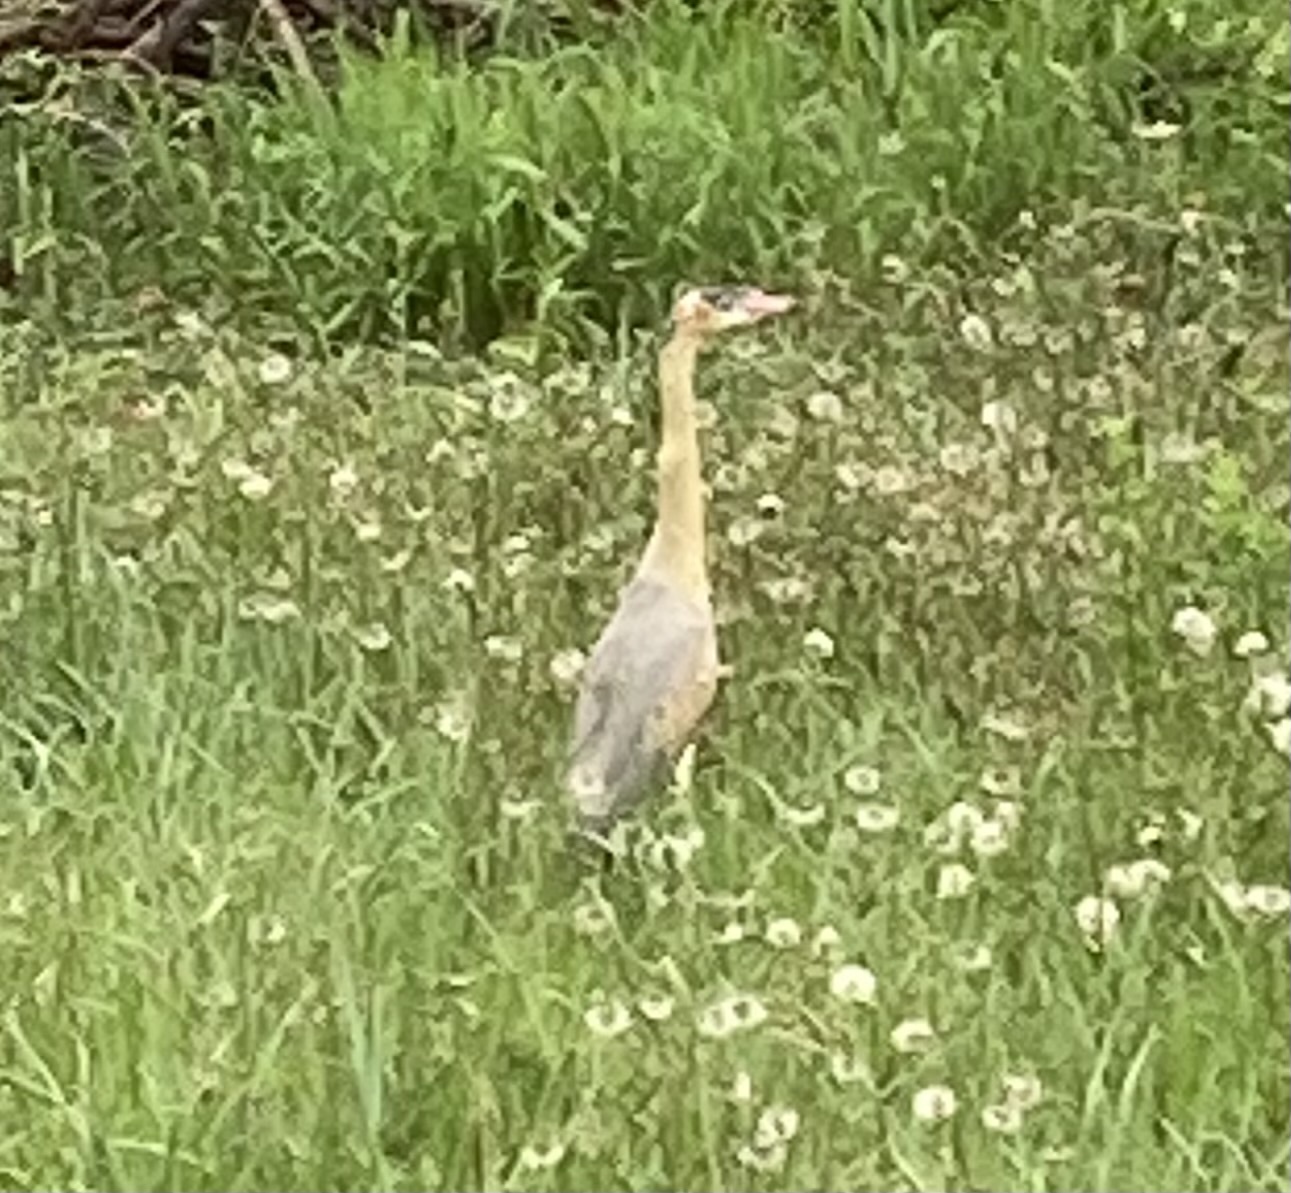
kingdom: Animalia
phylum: Chordata
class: Aves
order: Pelecaniformes
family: Ardeidae
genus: Syrigma
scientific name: Syrigma sibilatrix
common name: Whistling heron
